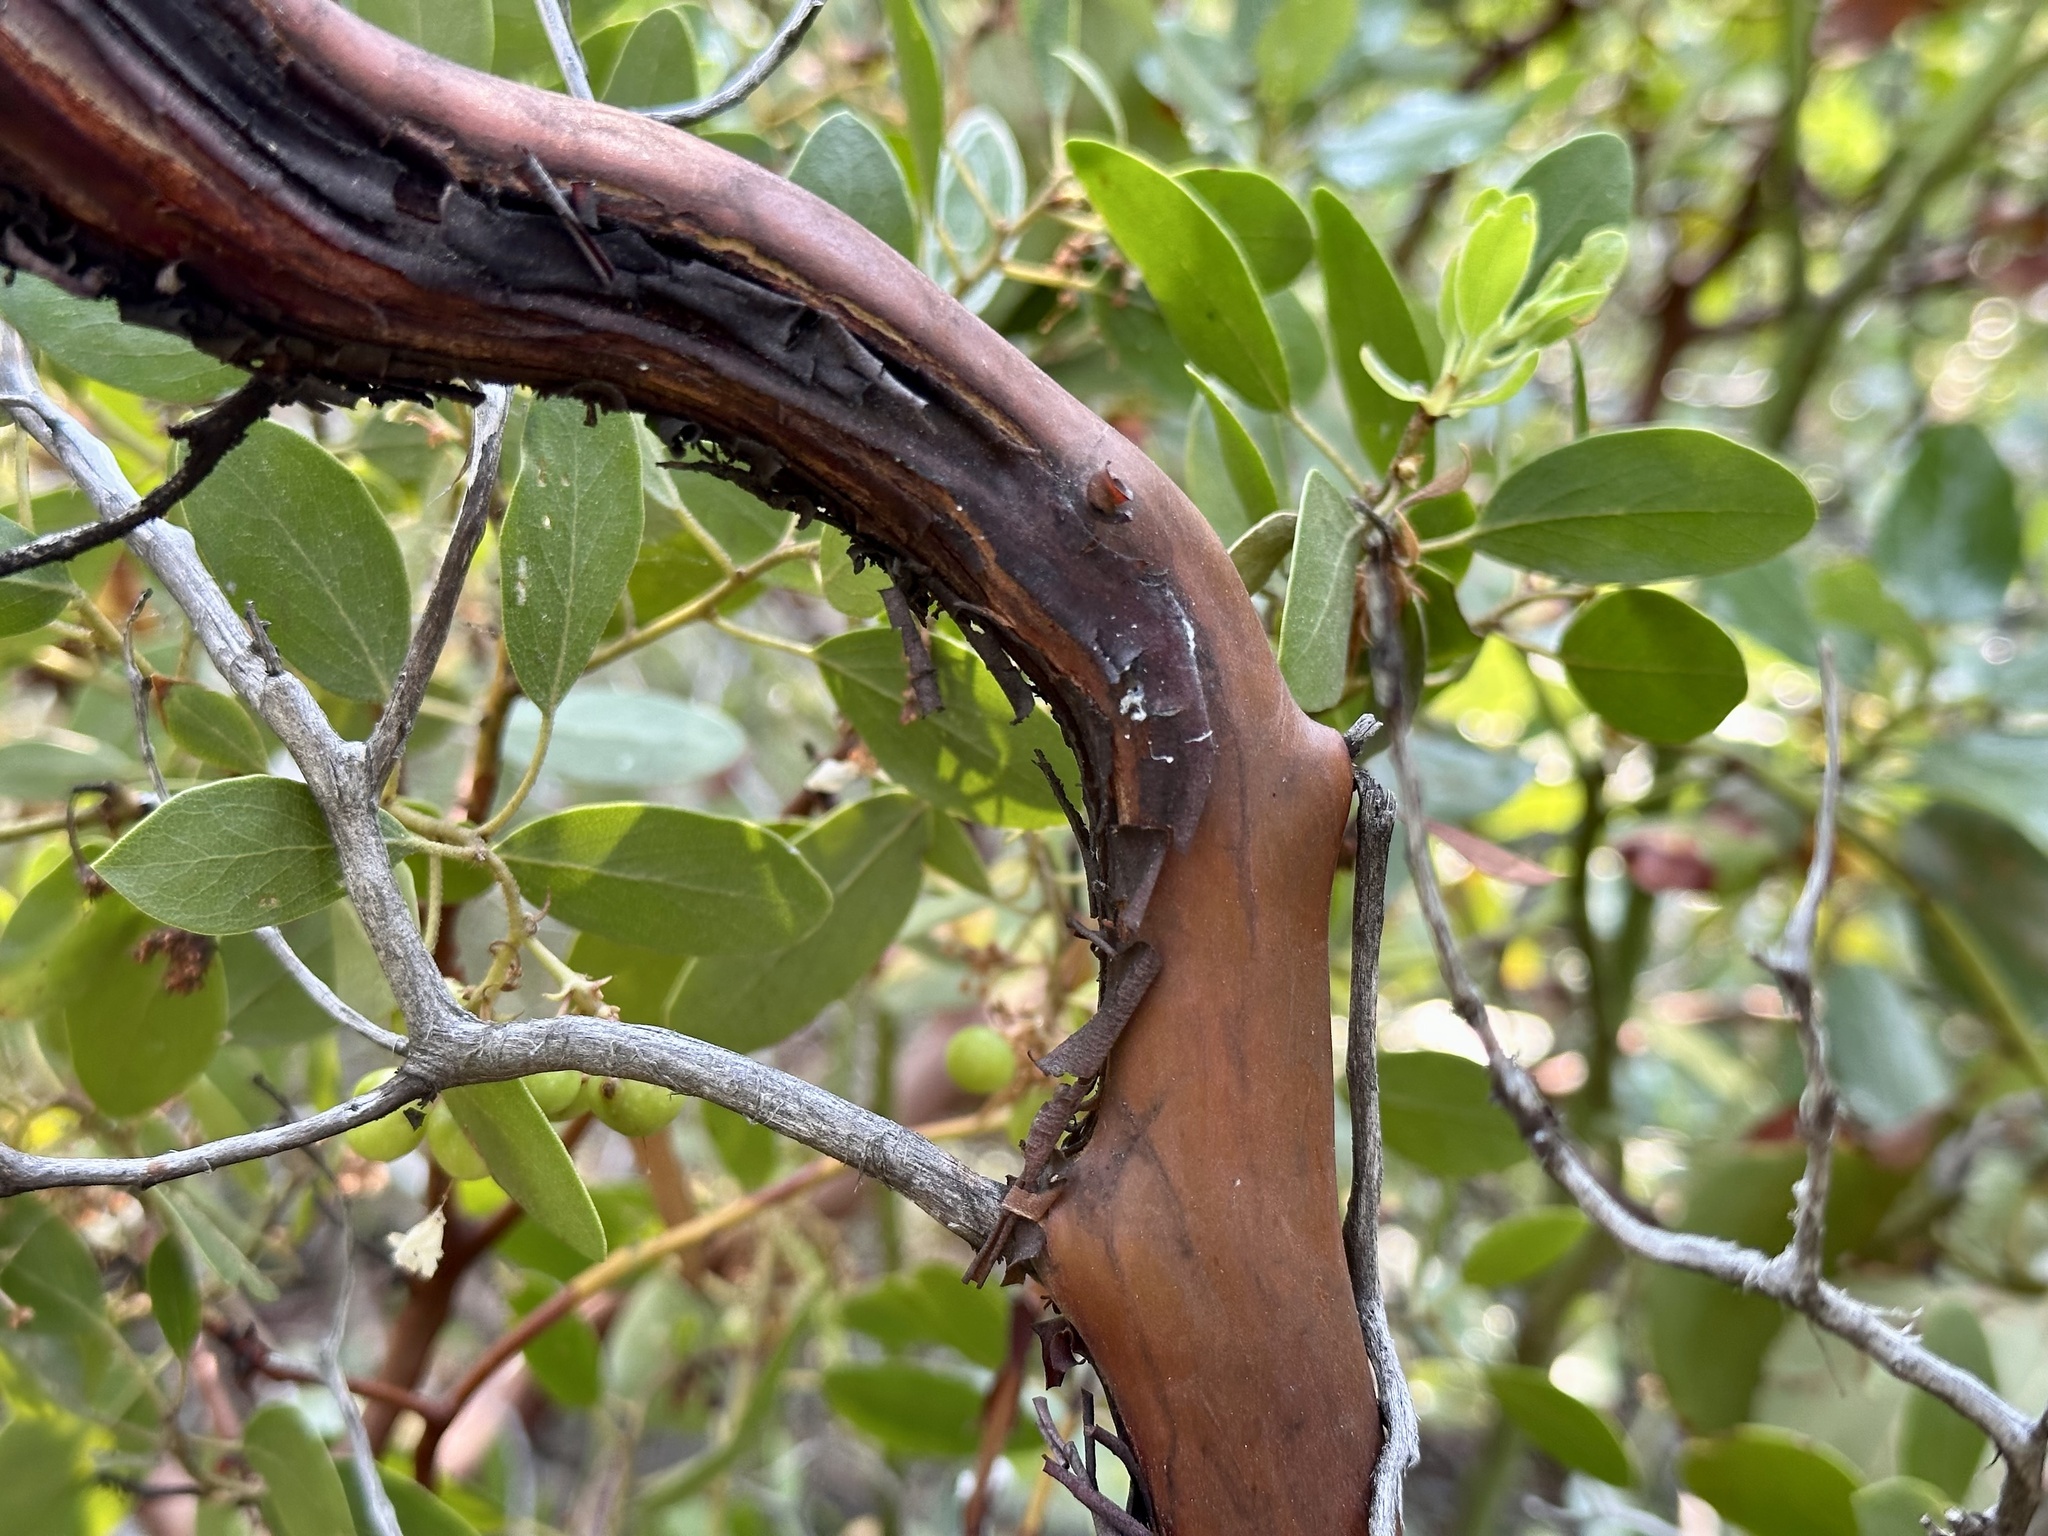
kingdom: Plantae
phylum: Tracheophyta
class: Magnoliopsida
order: Ericales
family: Ericaceae
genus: Arctostaphylos
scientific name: Arctostaphylos patula
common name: Green-leaf manzanita
